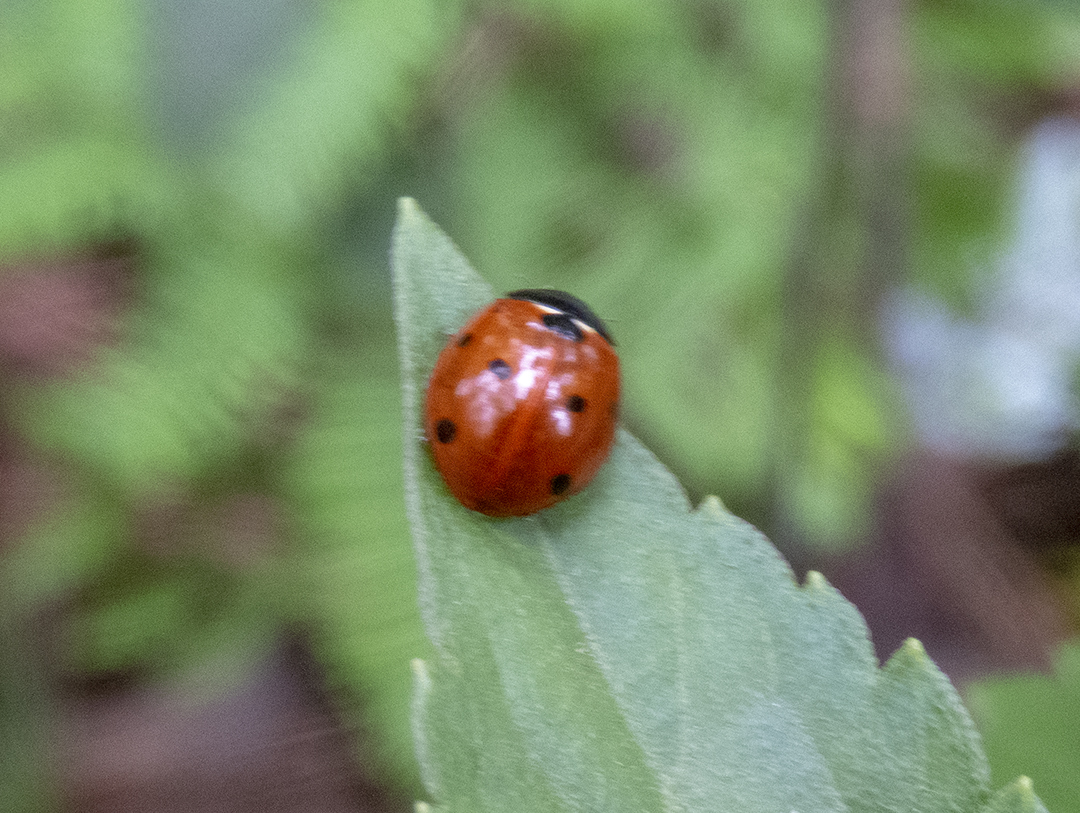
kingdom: Animalia
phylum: Arthropoda
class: Insecta
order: Coleoptera
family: Coccinellidae
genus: Coccinella
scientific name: Coccinella septempunctata
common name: Sevenspotted lady beetle
